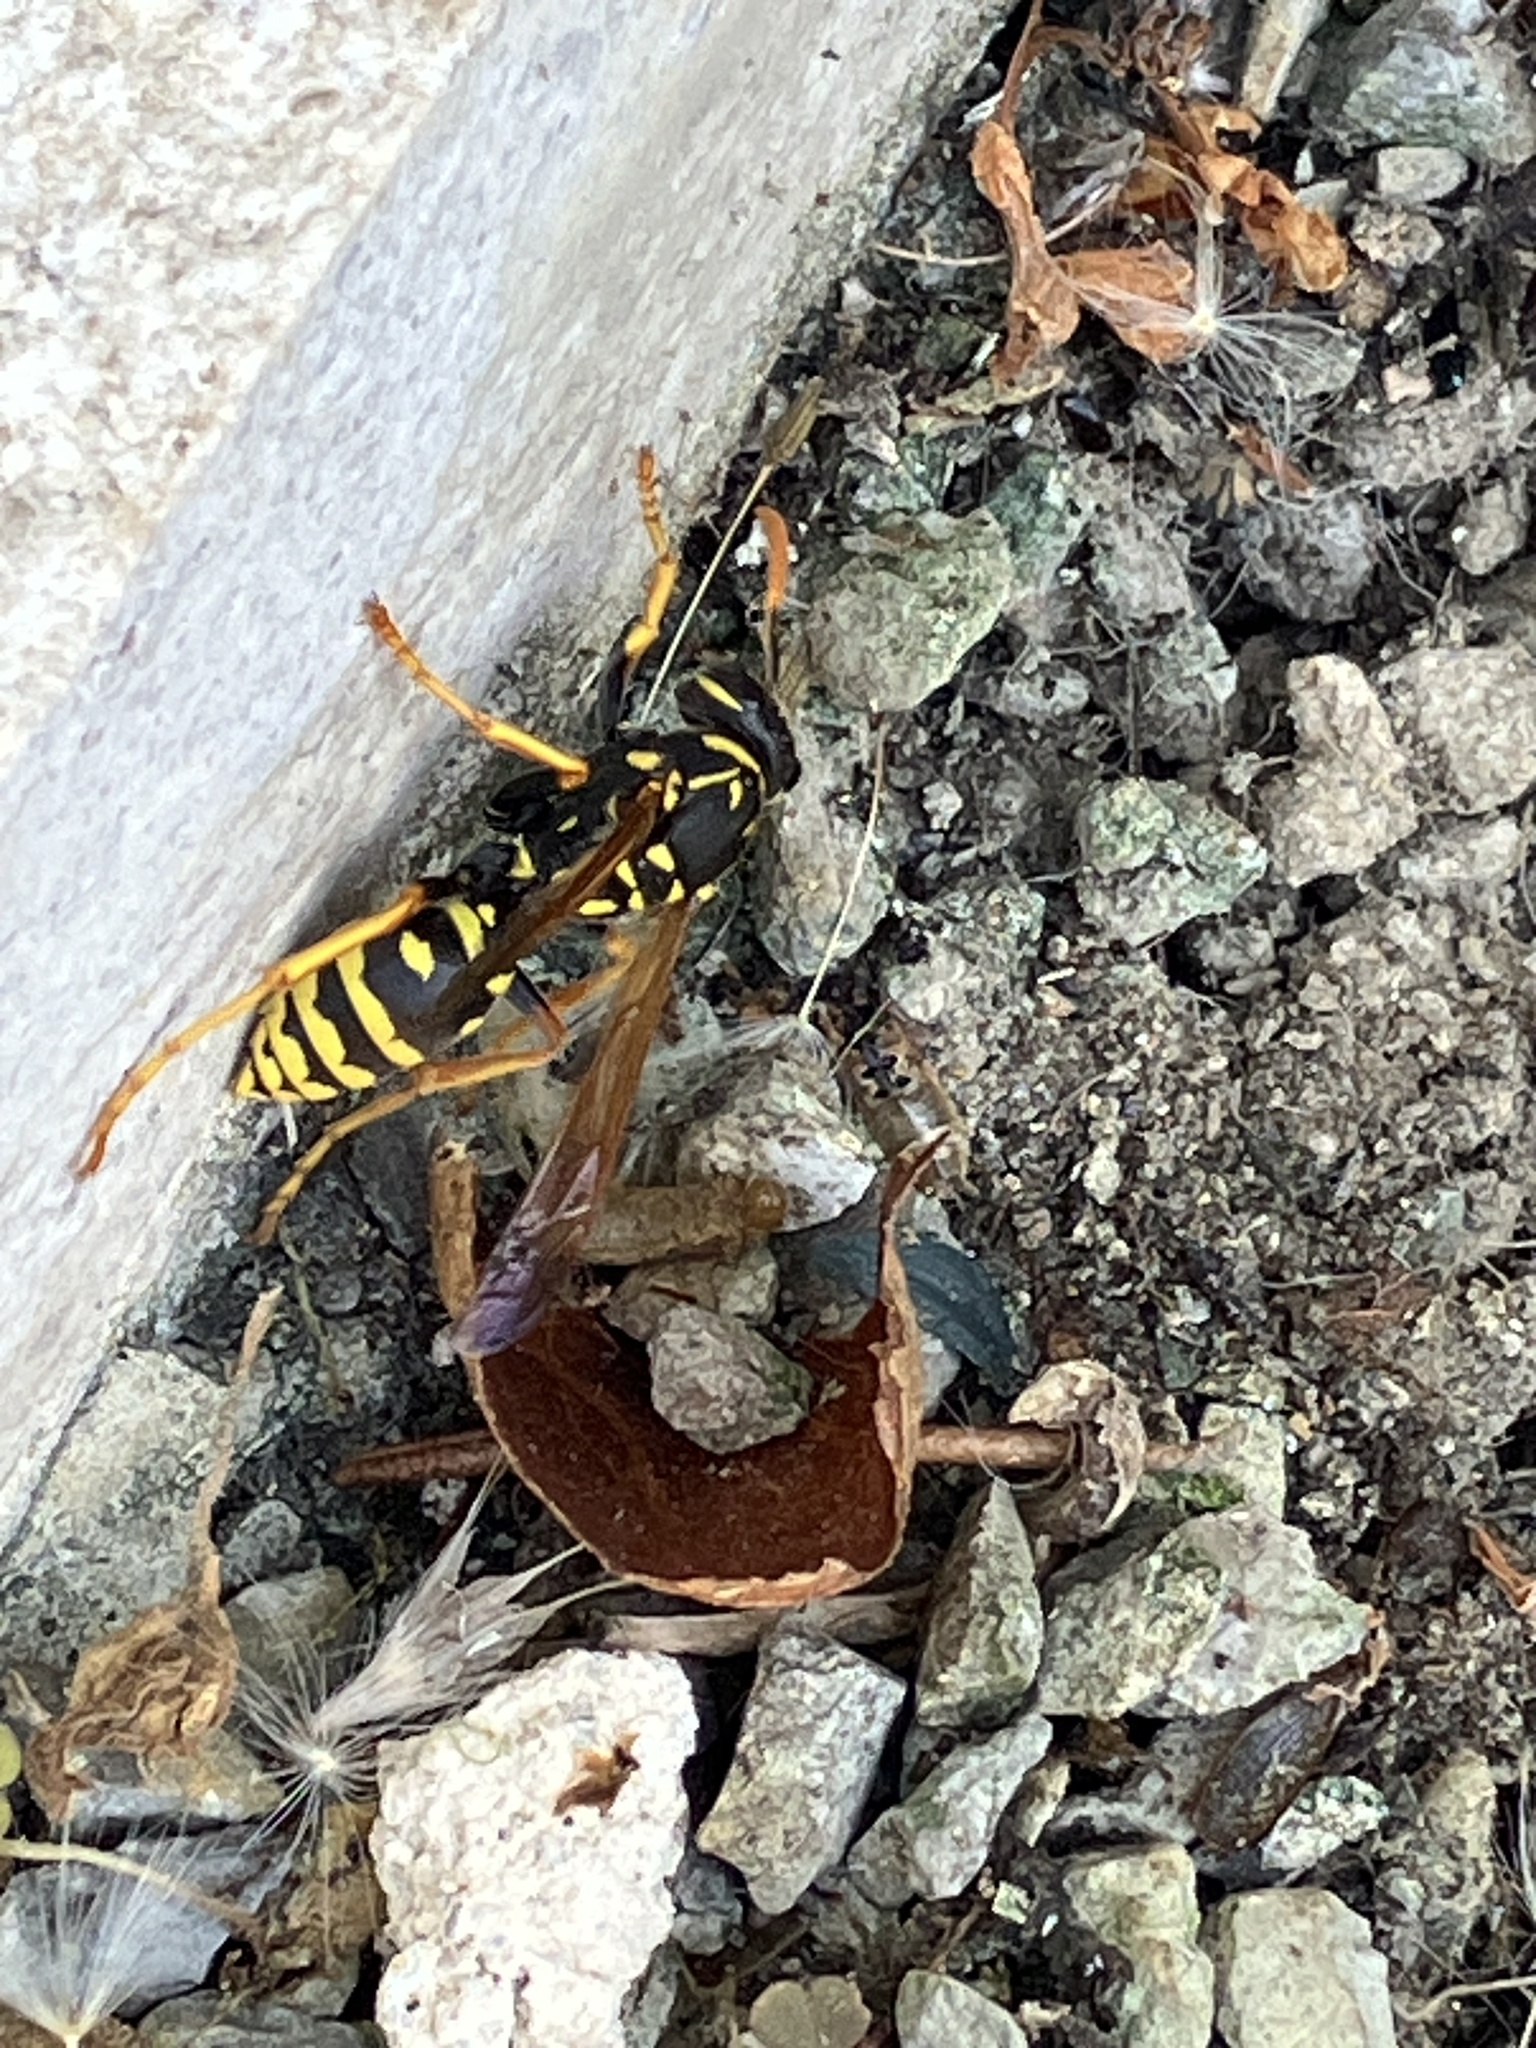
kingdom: Animalia
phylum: Arthropoda
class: Insecta
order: Hymenoptera
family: Eumenidae
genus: Polistes
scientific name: Polistes dominula
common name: Paper wasp
